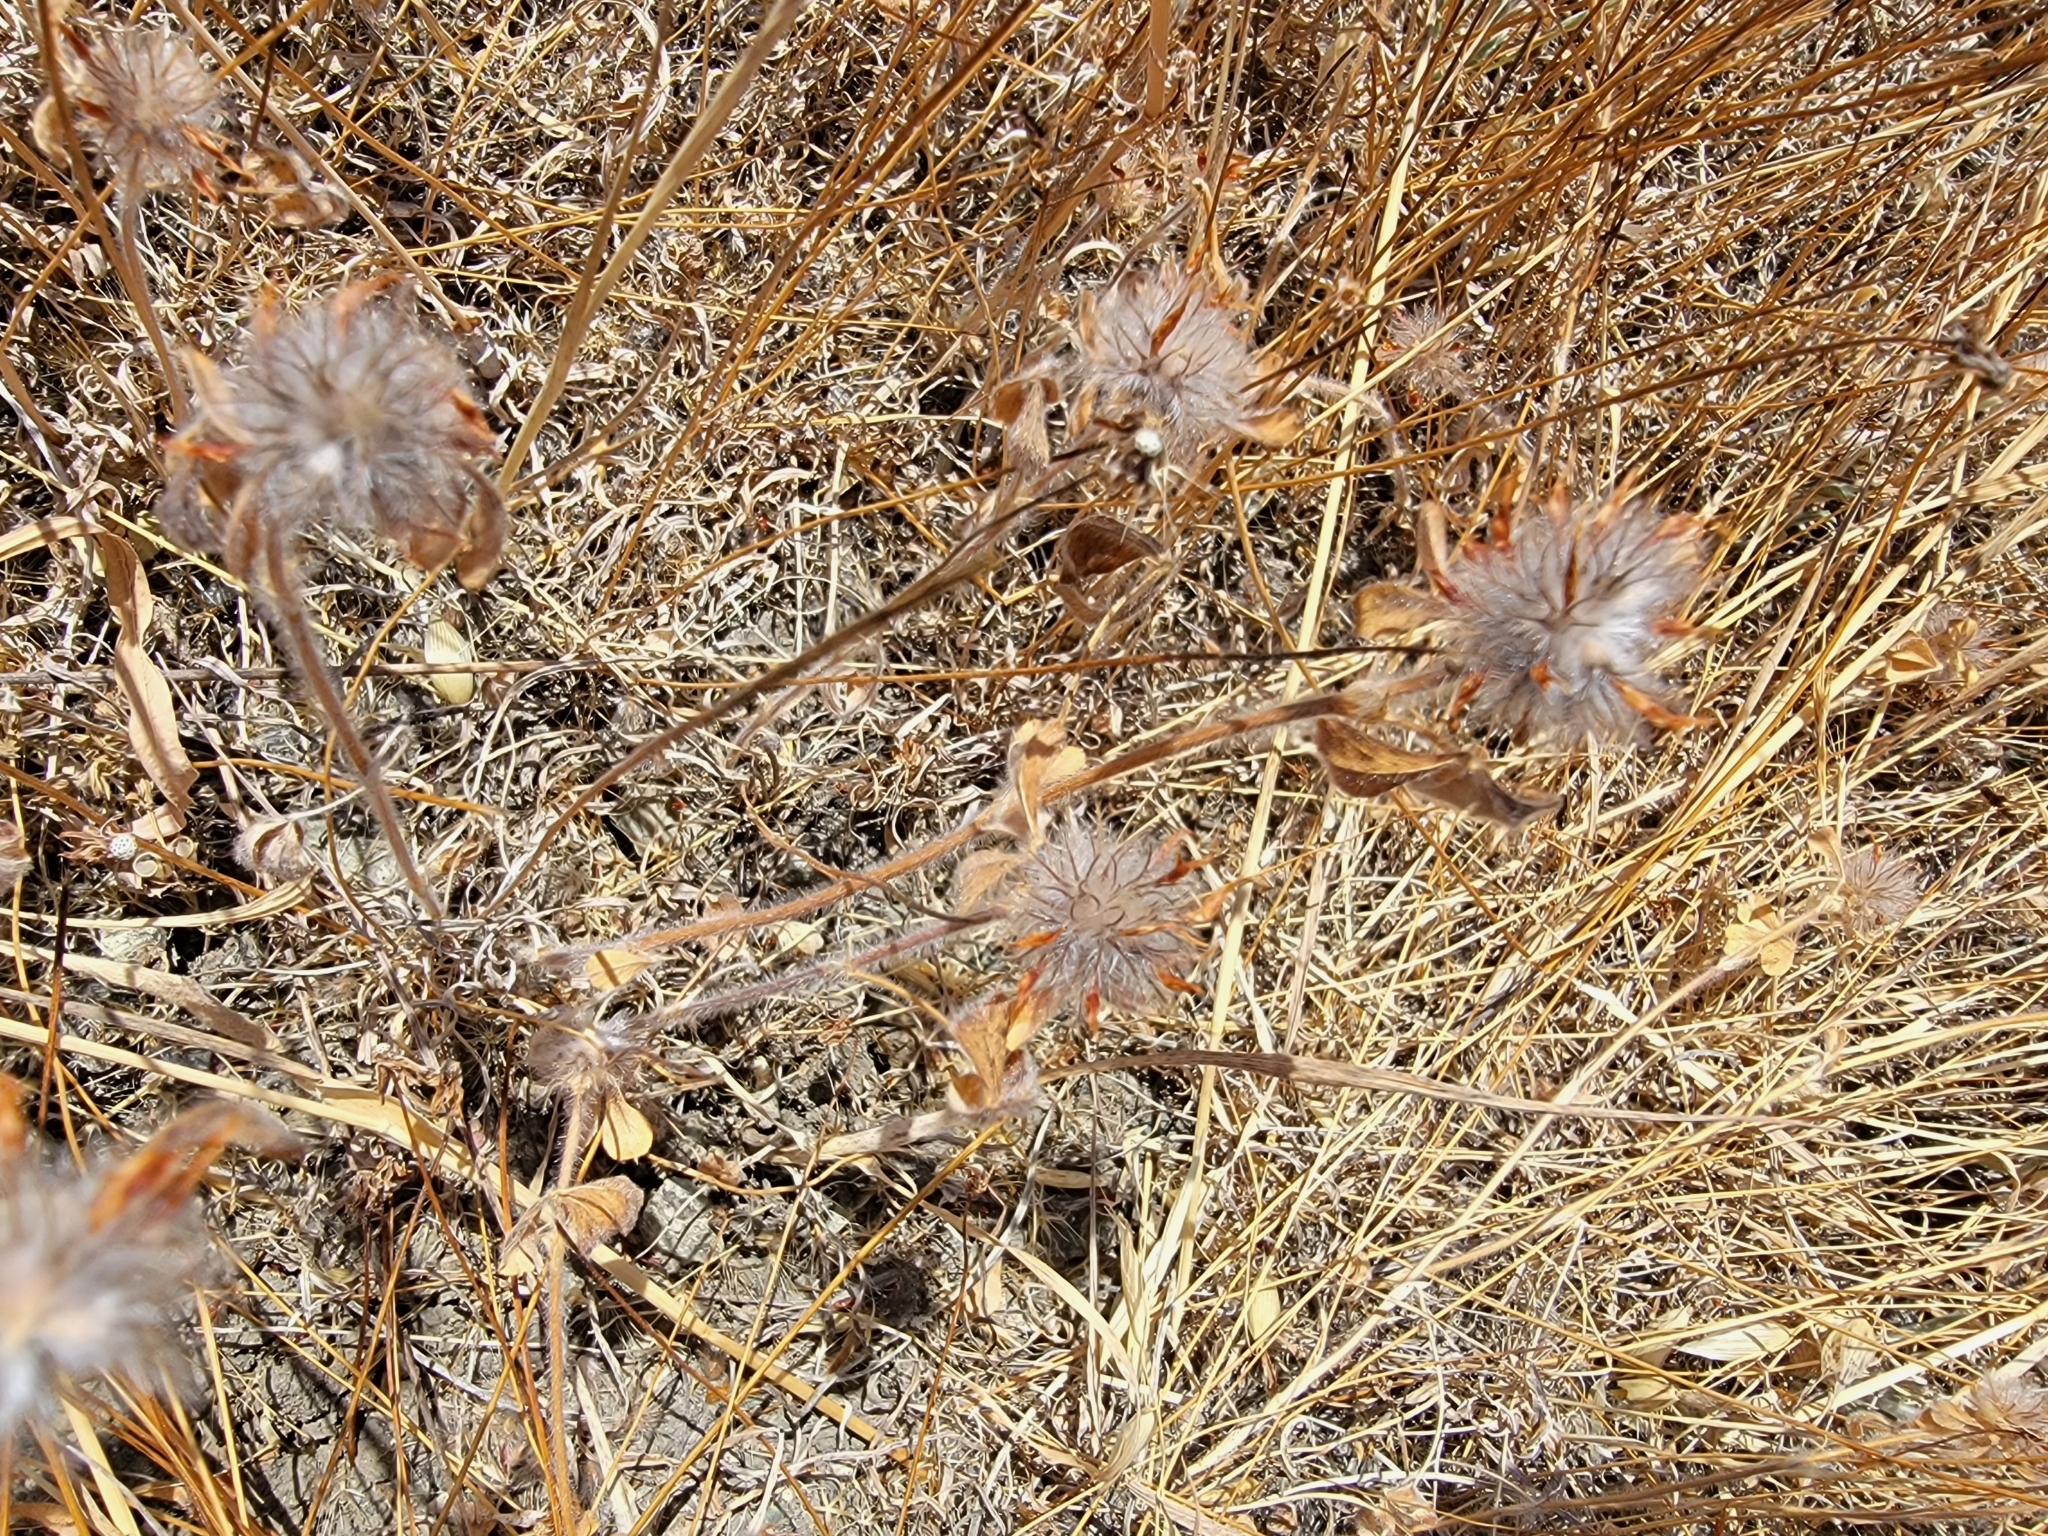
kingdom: Plantae
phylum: Tracheophyta
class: Magnoliopsida
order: Fabales
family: Fabaceae
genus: Trifolium
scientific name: Trifolium hirtum
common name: Rose clover
